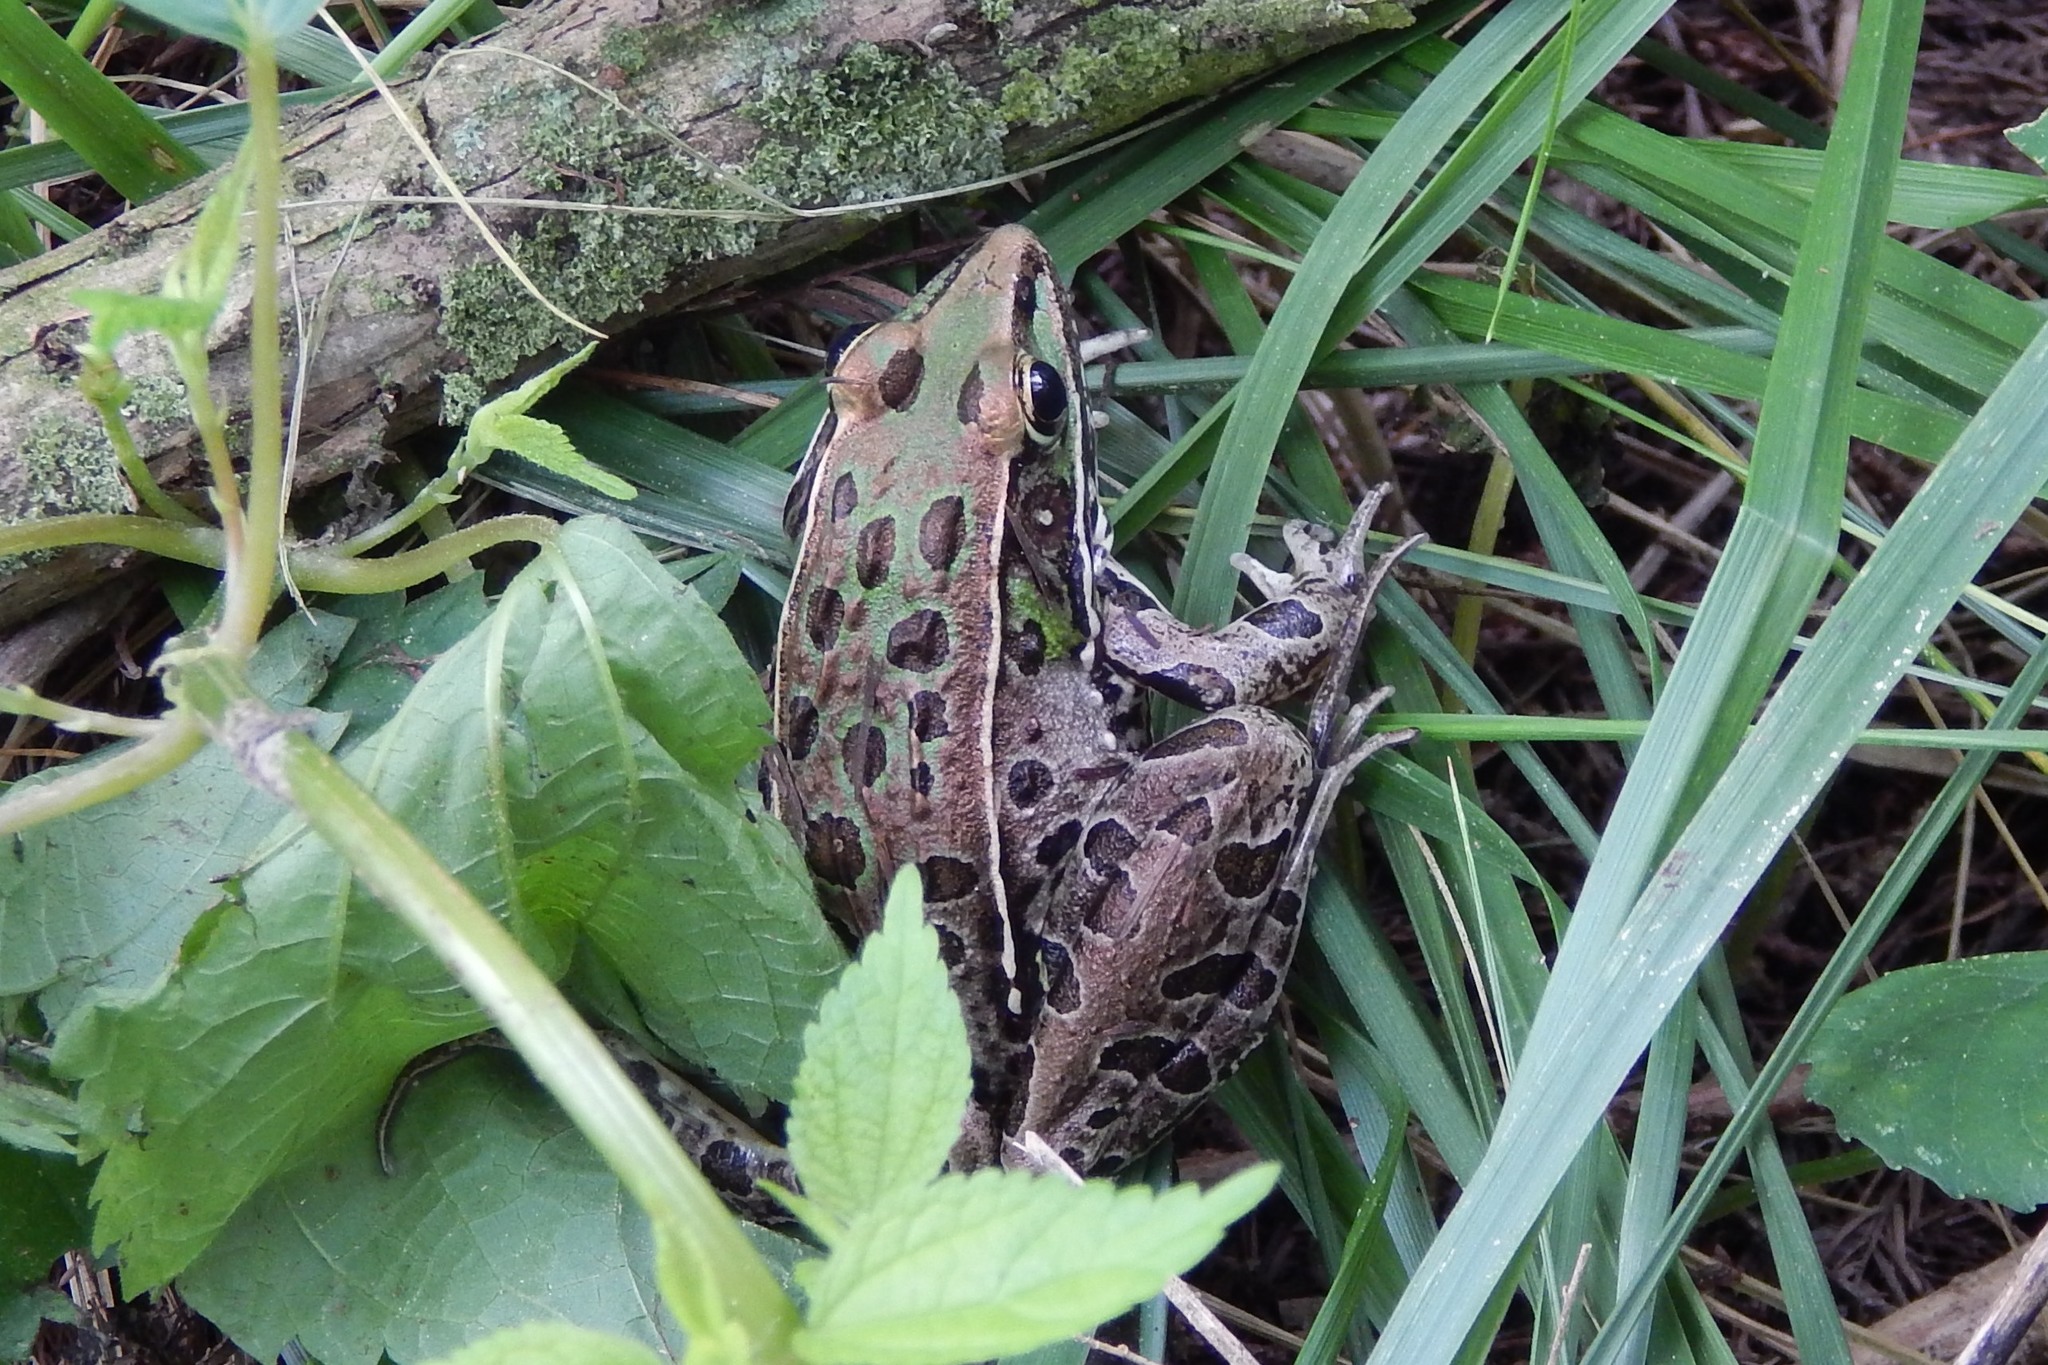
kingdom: Animalia
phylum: Chordata
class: Amphibia
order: Anura
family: Ranidae
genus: Lithobates
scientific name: Lithobates sphenocephalus
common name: Southern leopard frog
